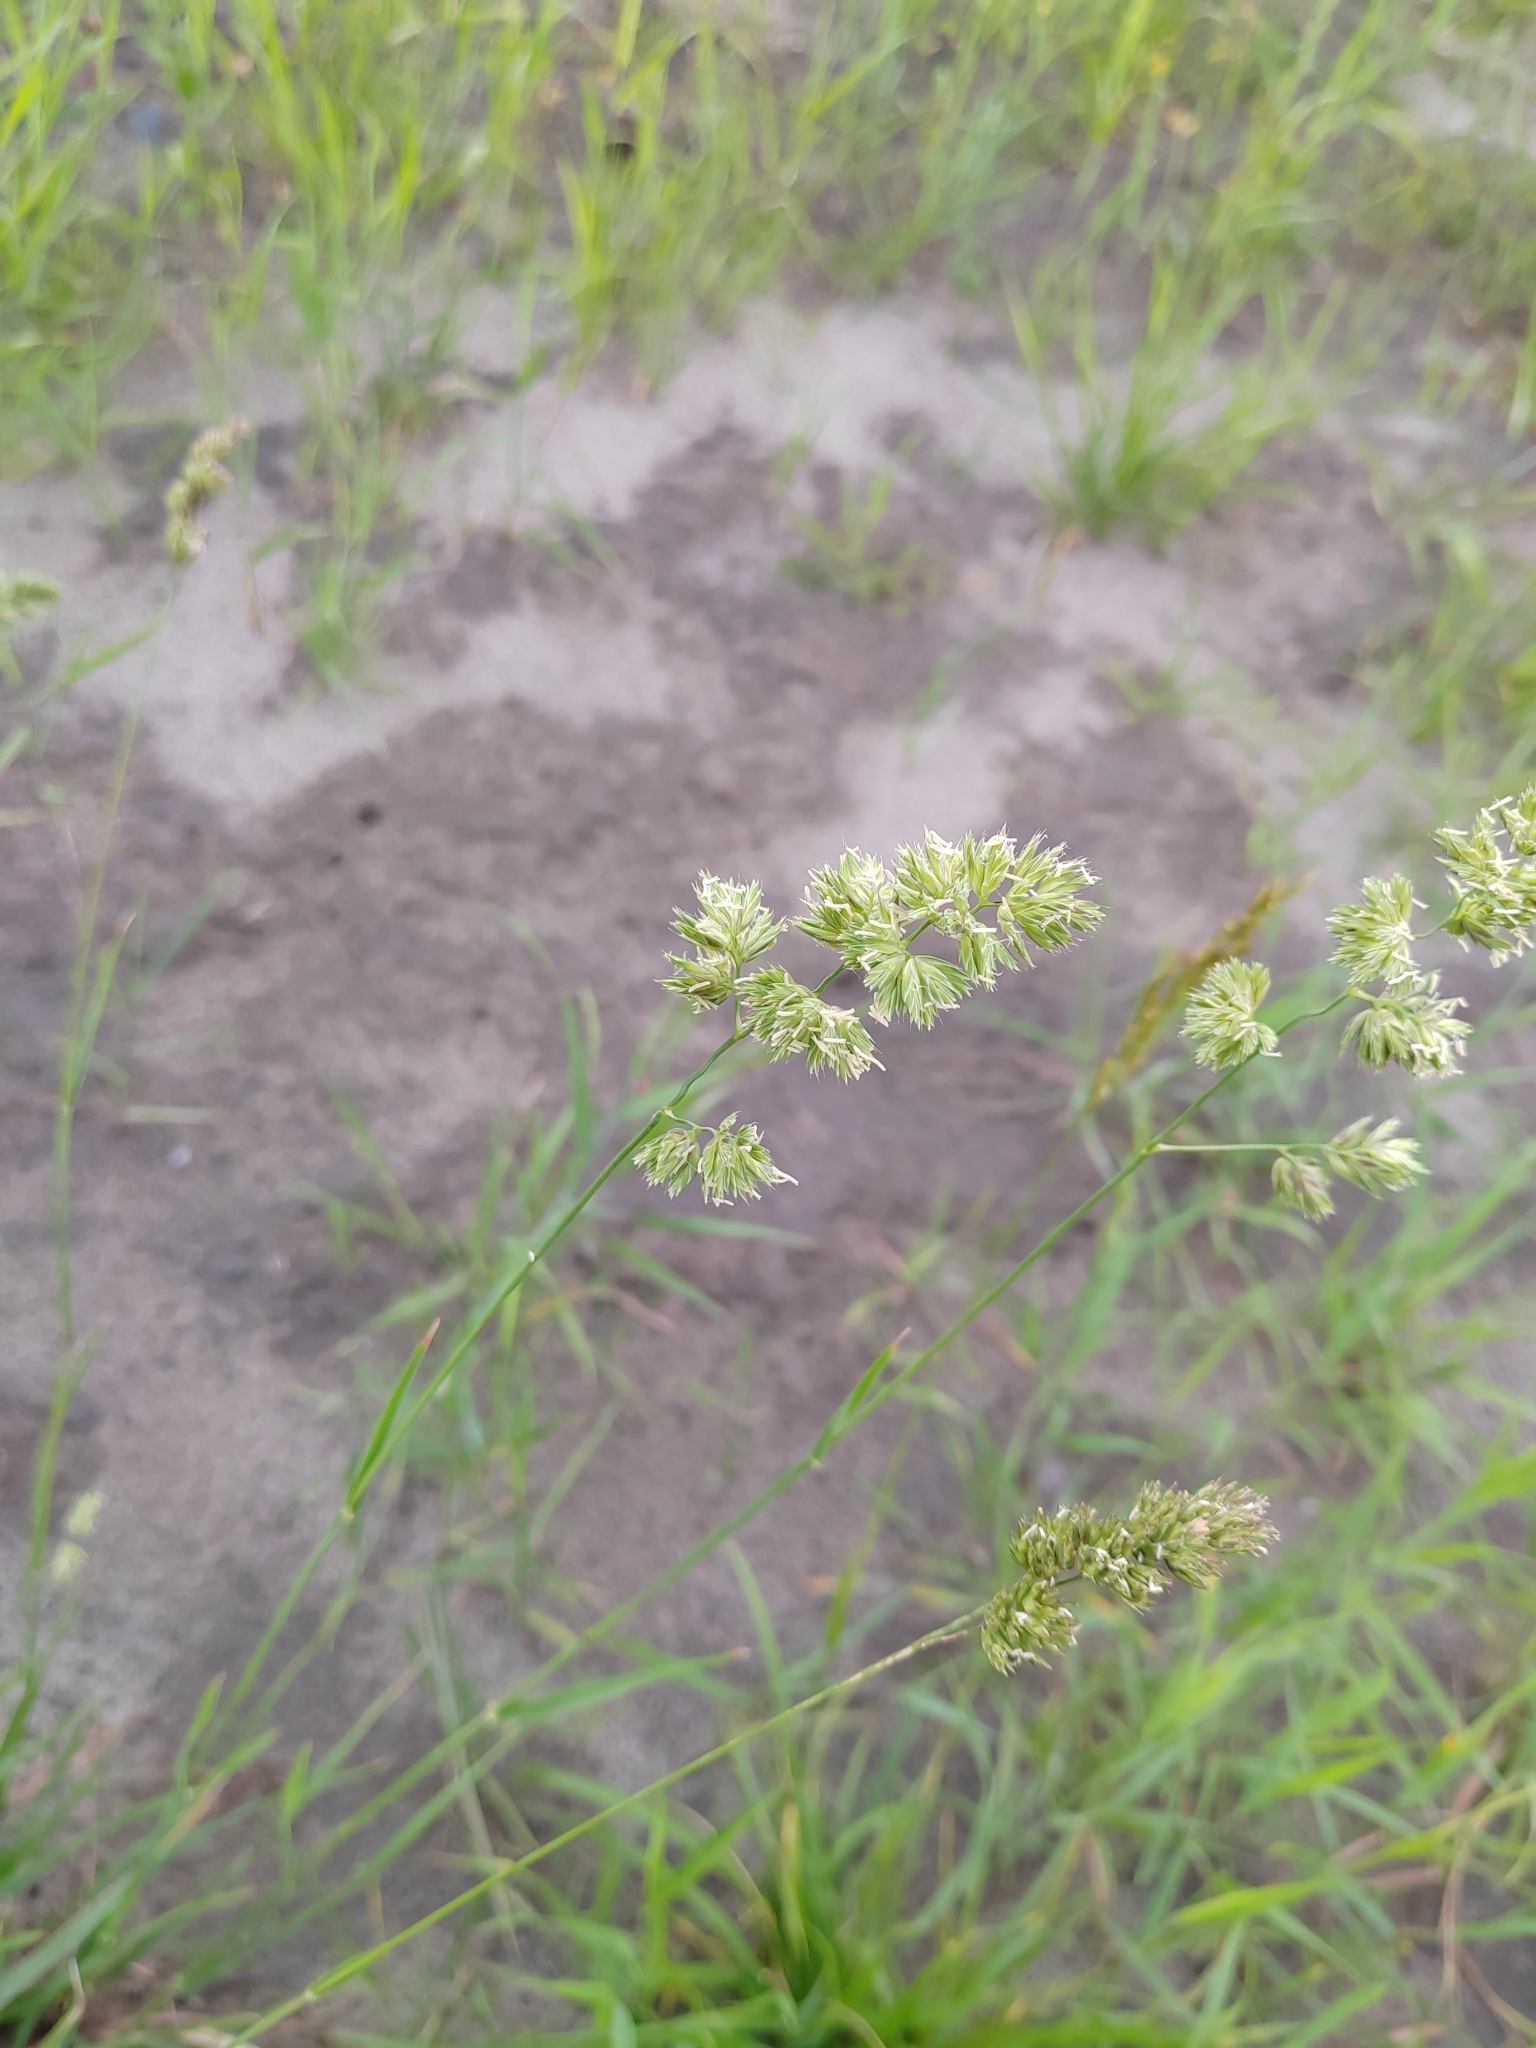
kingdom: Plantae
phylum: Tracheophyta
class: Liliopsida
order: Poales
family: Poaceae
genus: Dactylis
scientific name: Dactylis glomerata
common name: Orchardgrass
